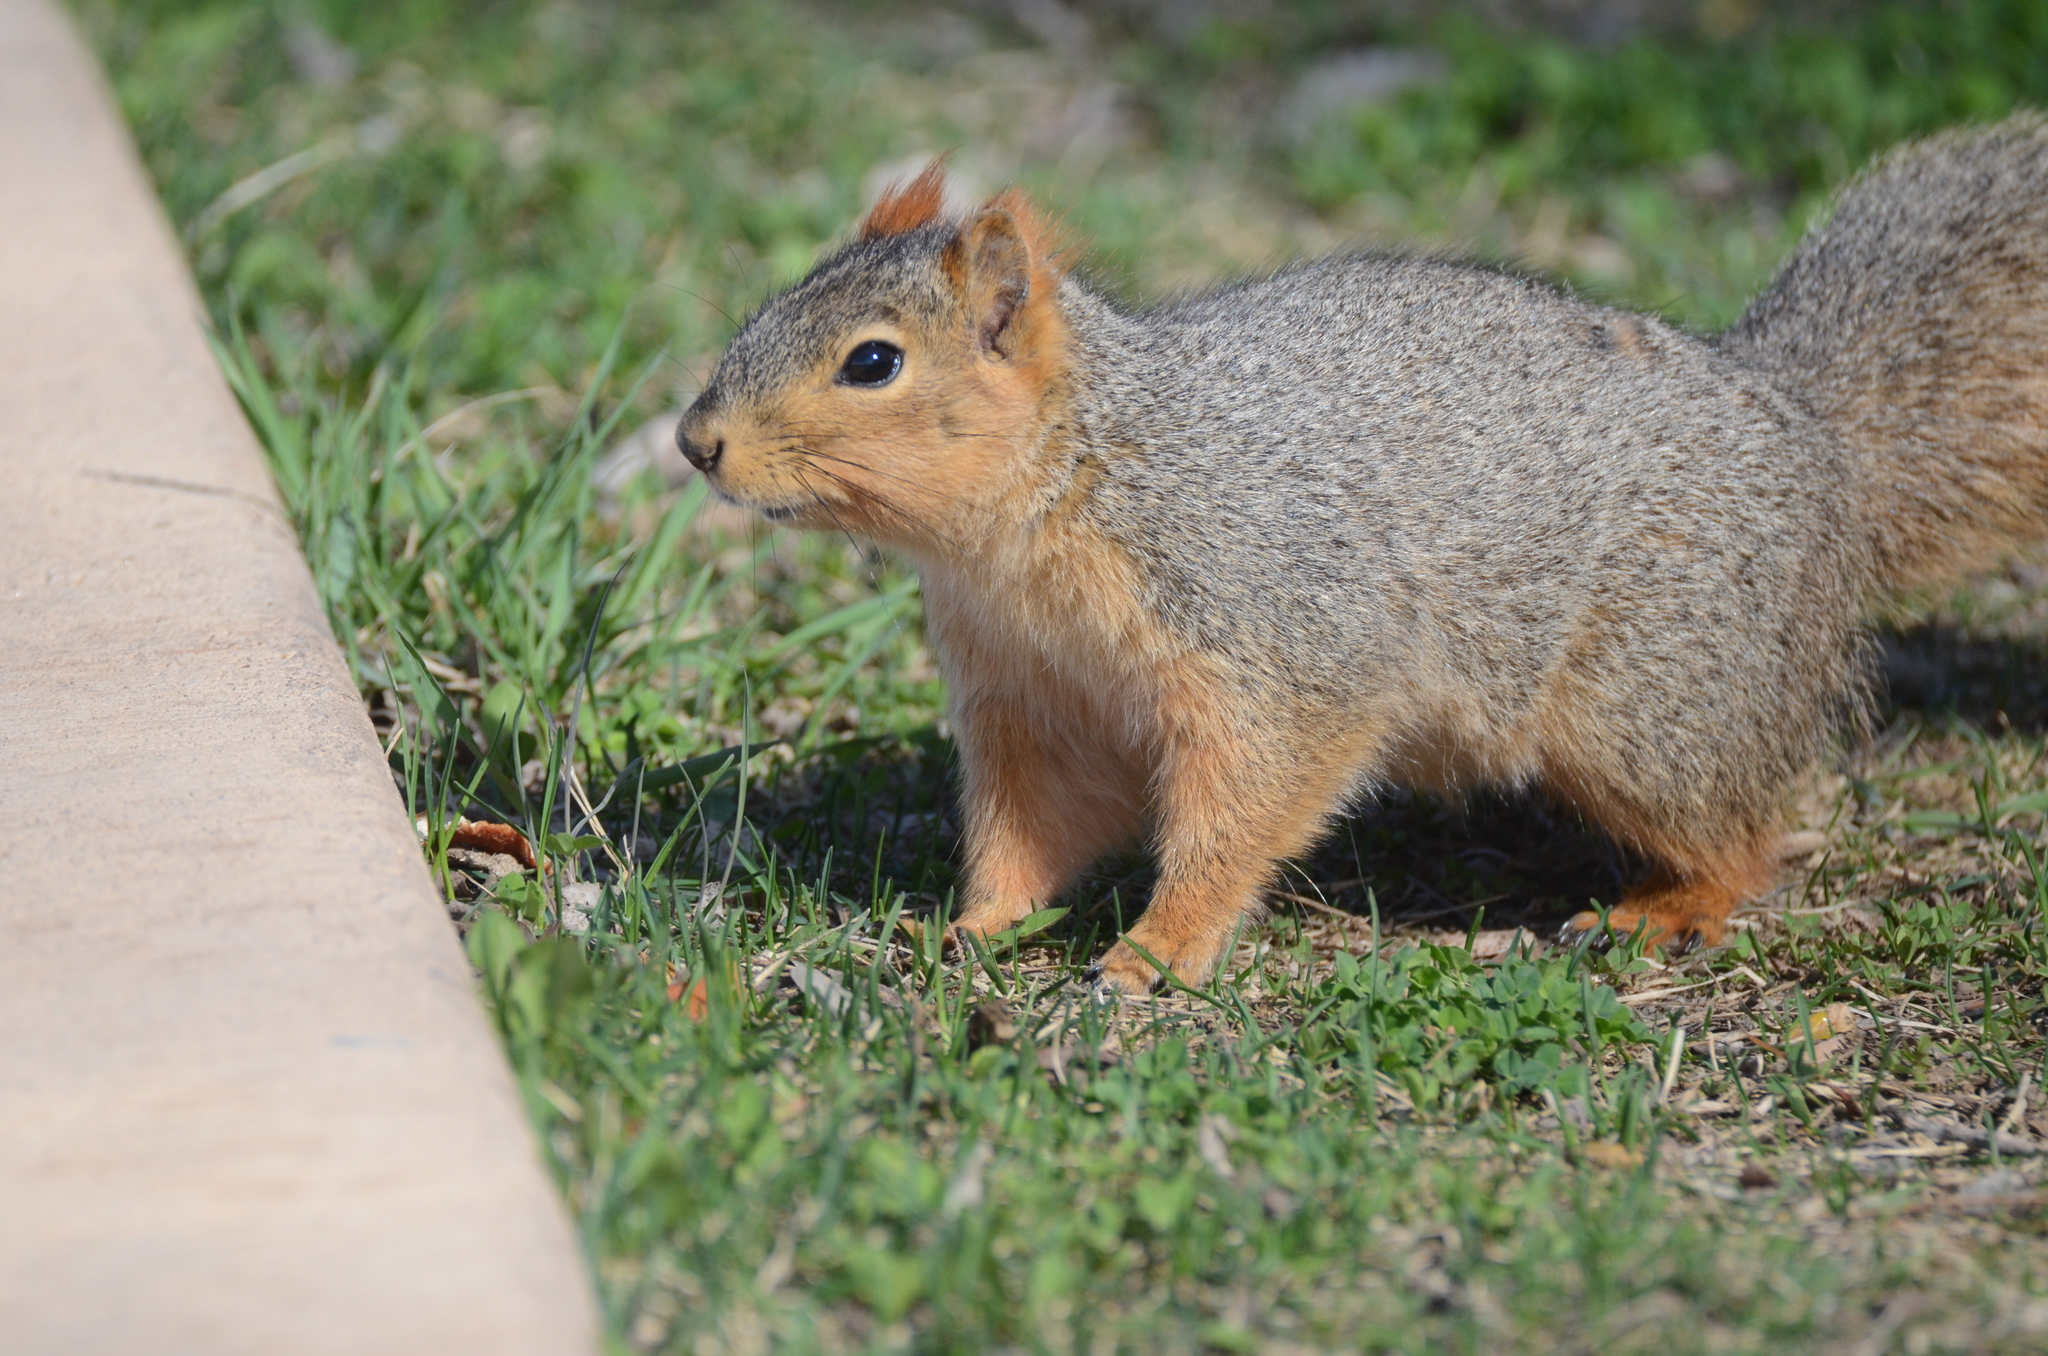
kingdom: Animalia
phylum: Chordata
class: Mammalia
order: Rodentia
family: Sciuridae
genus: Sciurus
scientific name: Sciurus niger
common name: Fox squirrel
